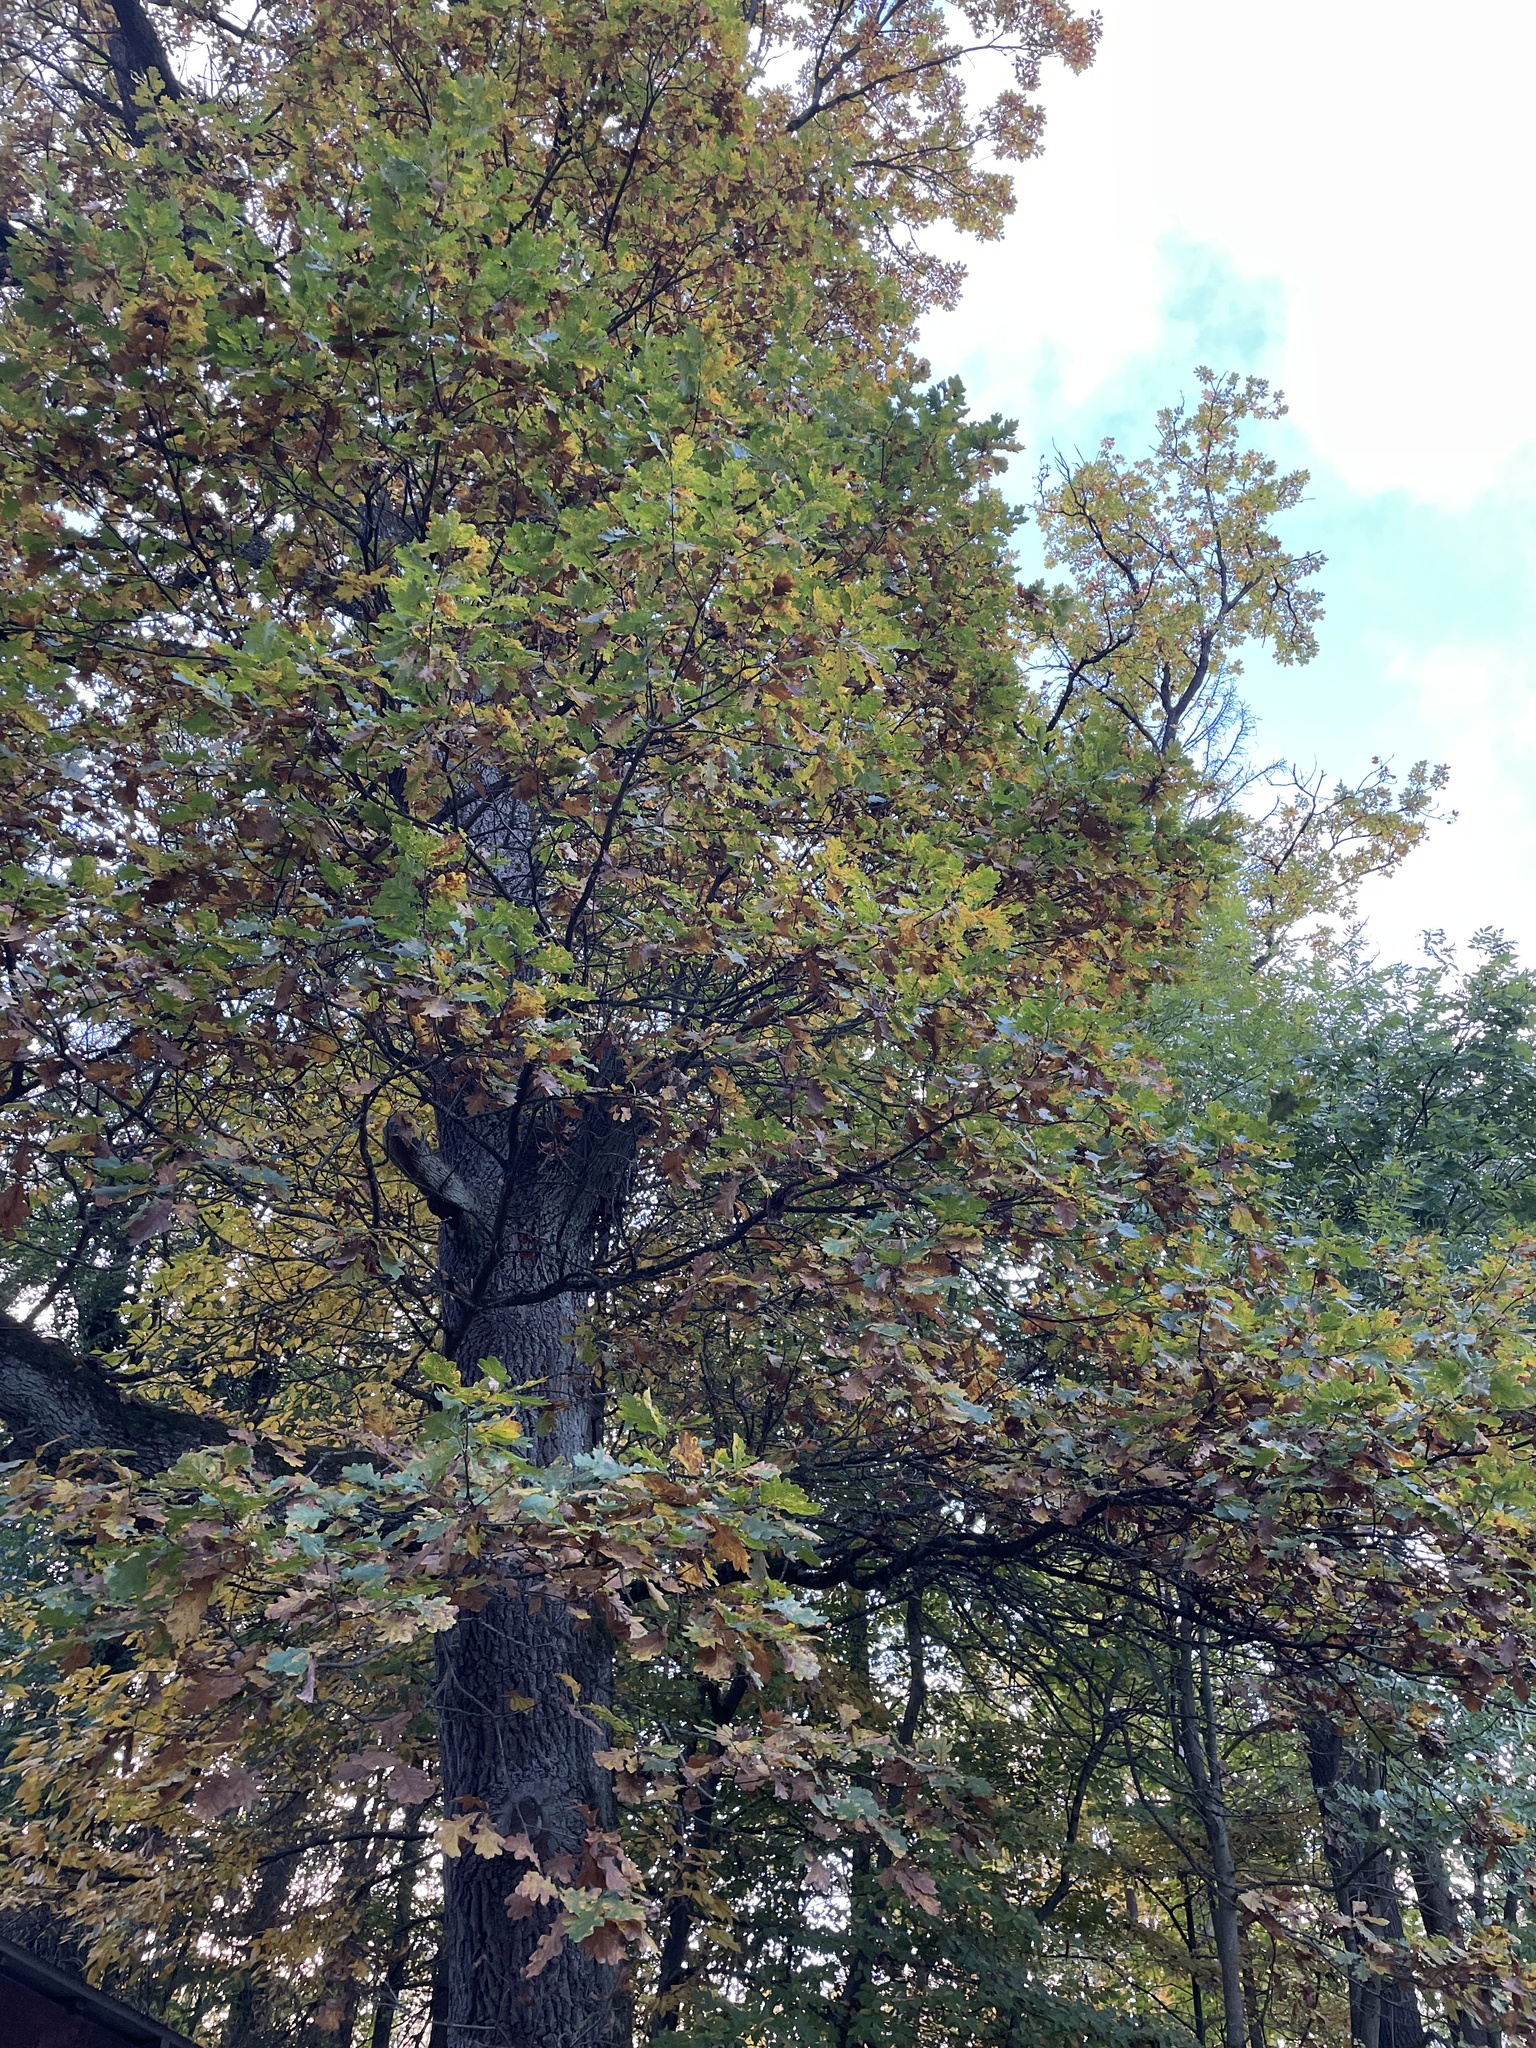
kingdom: Plantae
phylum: Tracheophyta
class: Magnoliopsida
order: Fagales
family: Fagaceae
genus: Quercus
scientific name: Quercus robur
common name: Pedunculate oak
